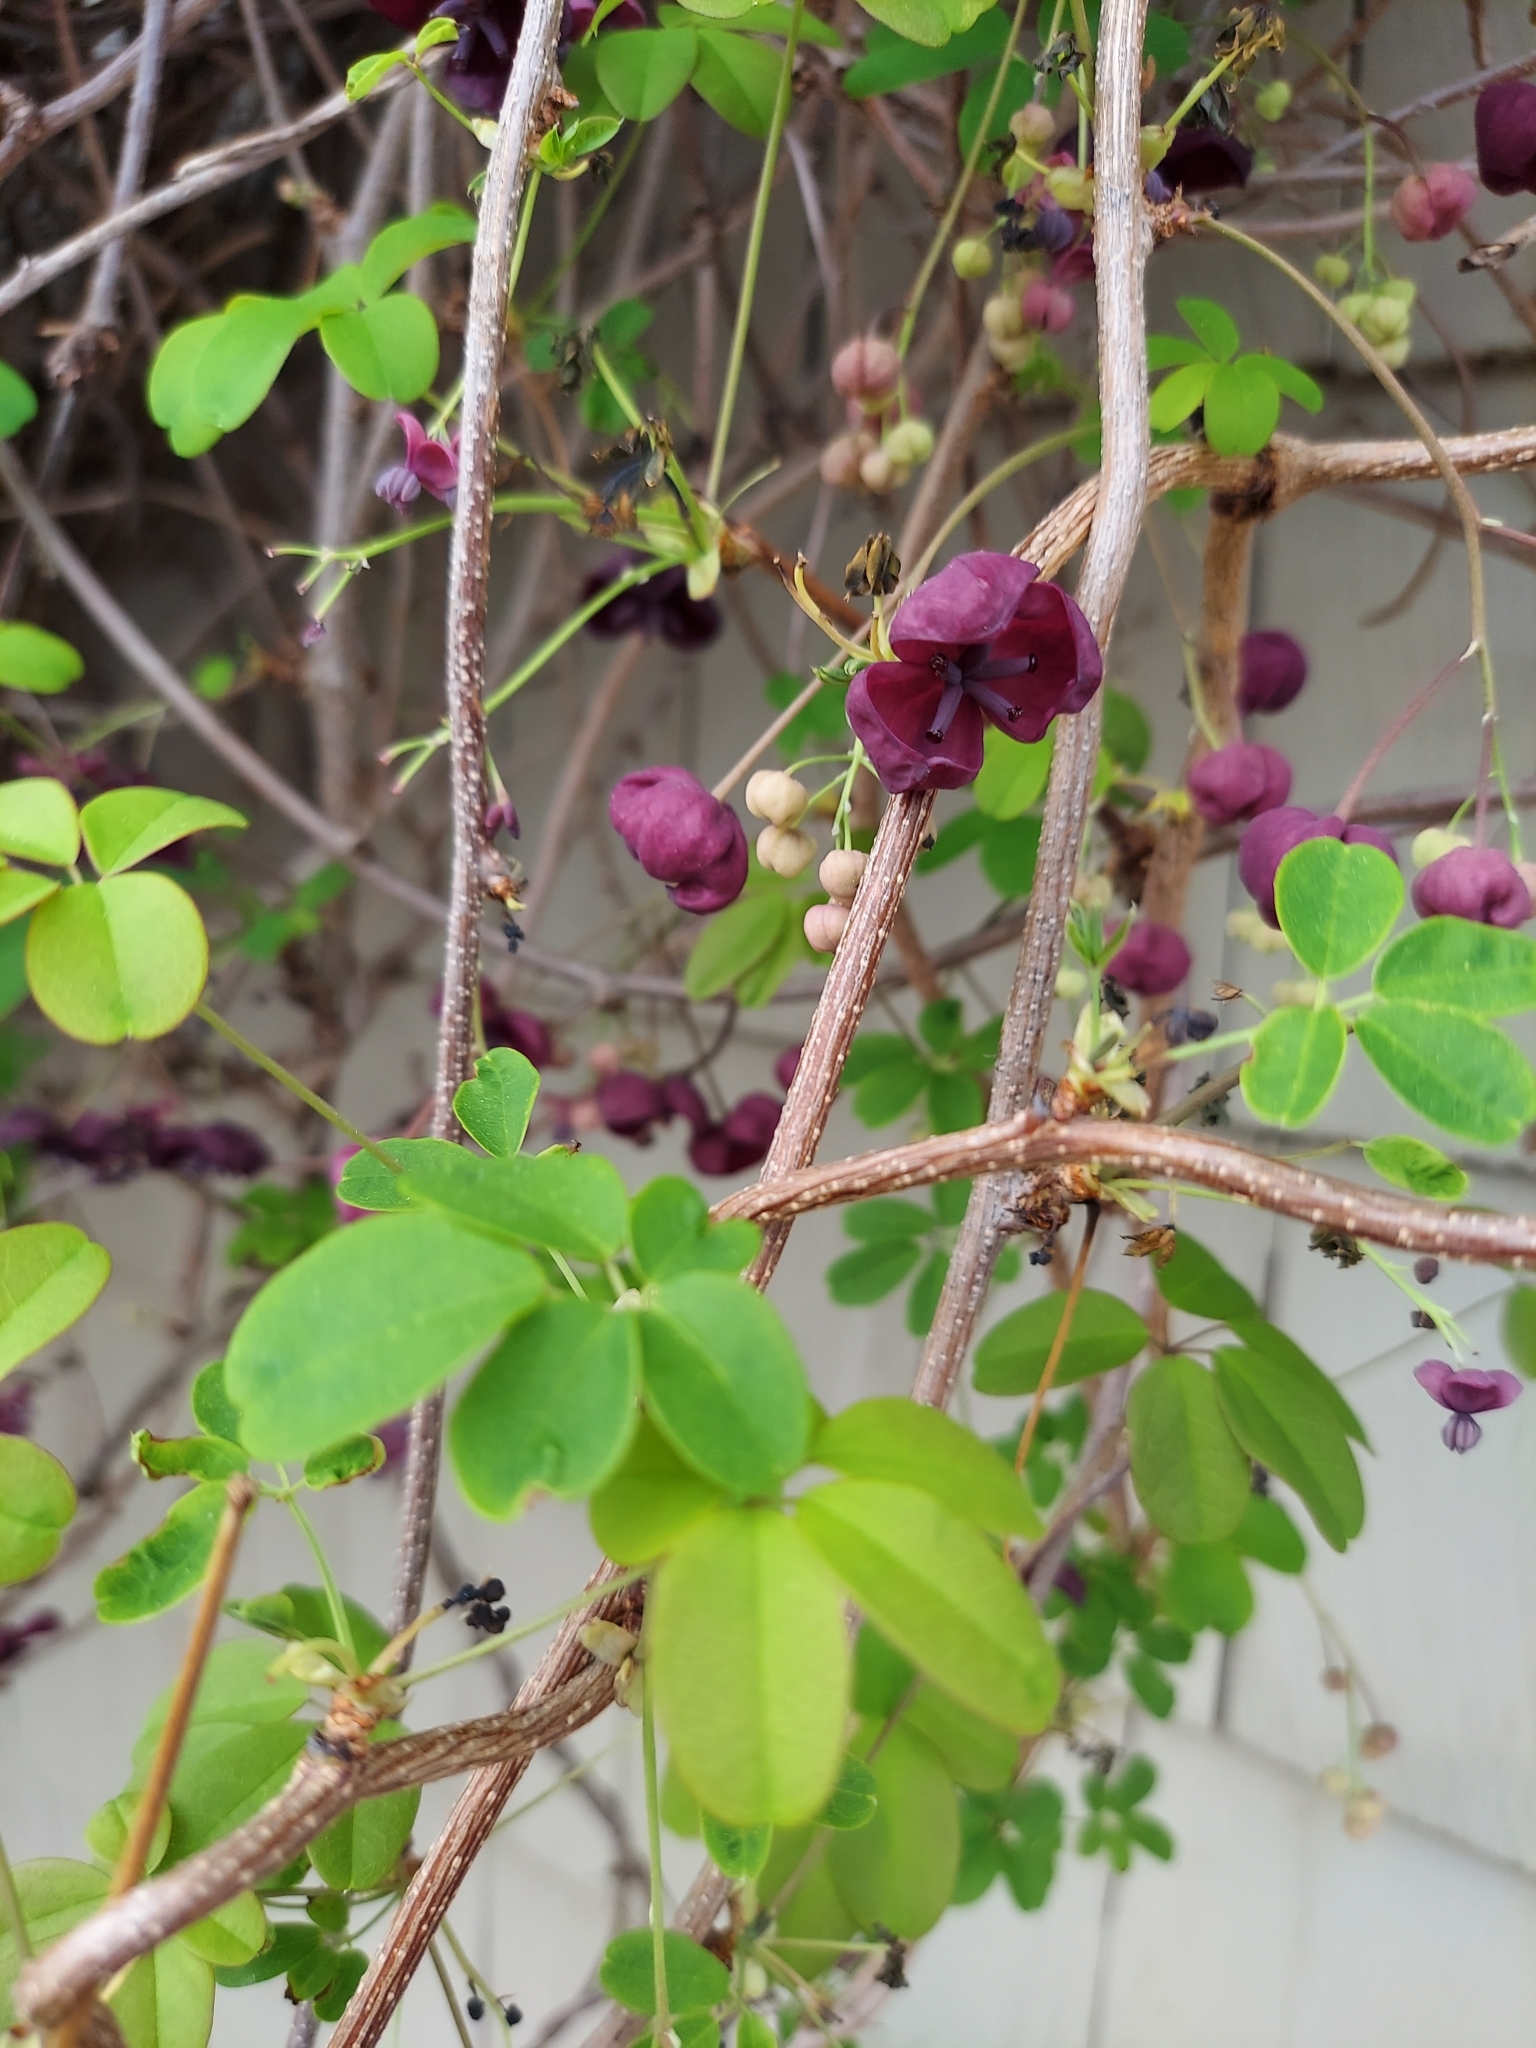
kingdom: Plantae
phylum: Tracheophyta
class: Magnoliopsida
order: Ranunculales
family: Lardizabalaceae
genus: Akebia
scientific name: Akebia quinata
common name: Five-leaf akebia
